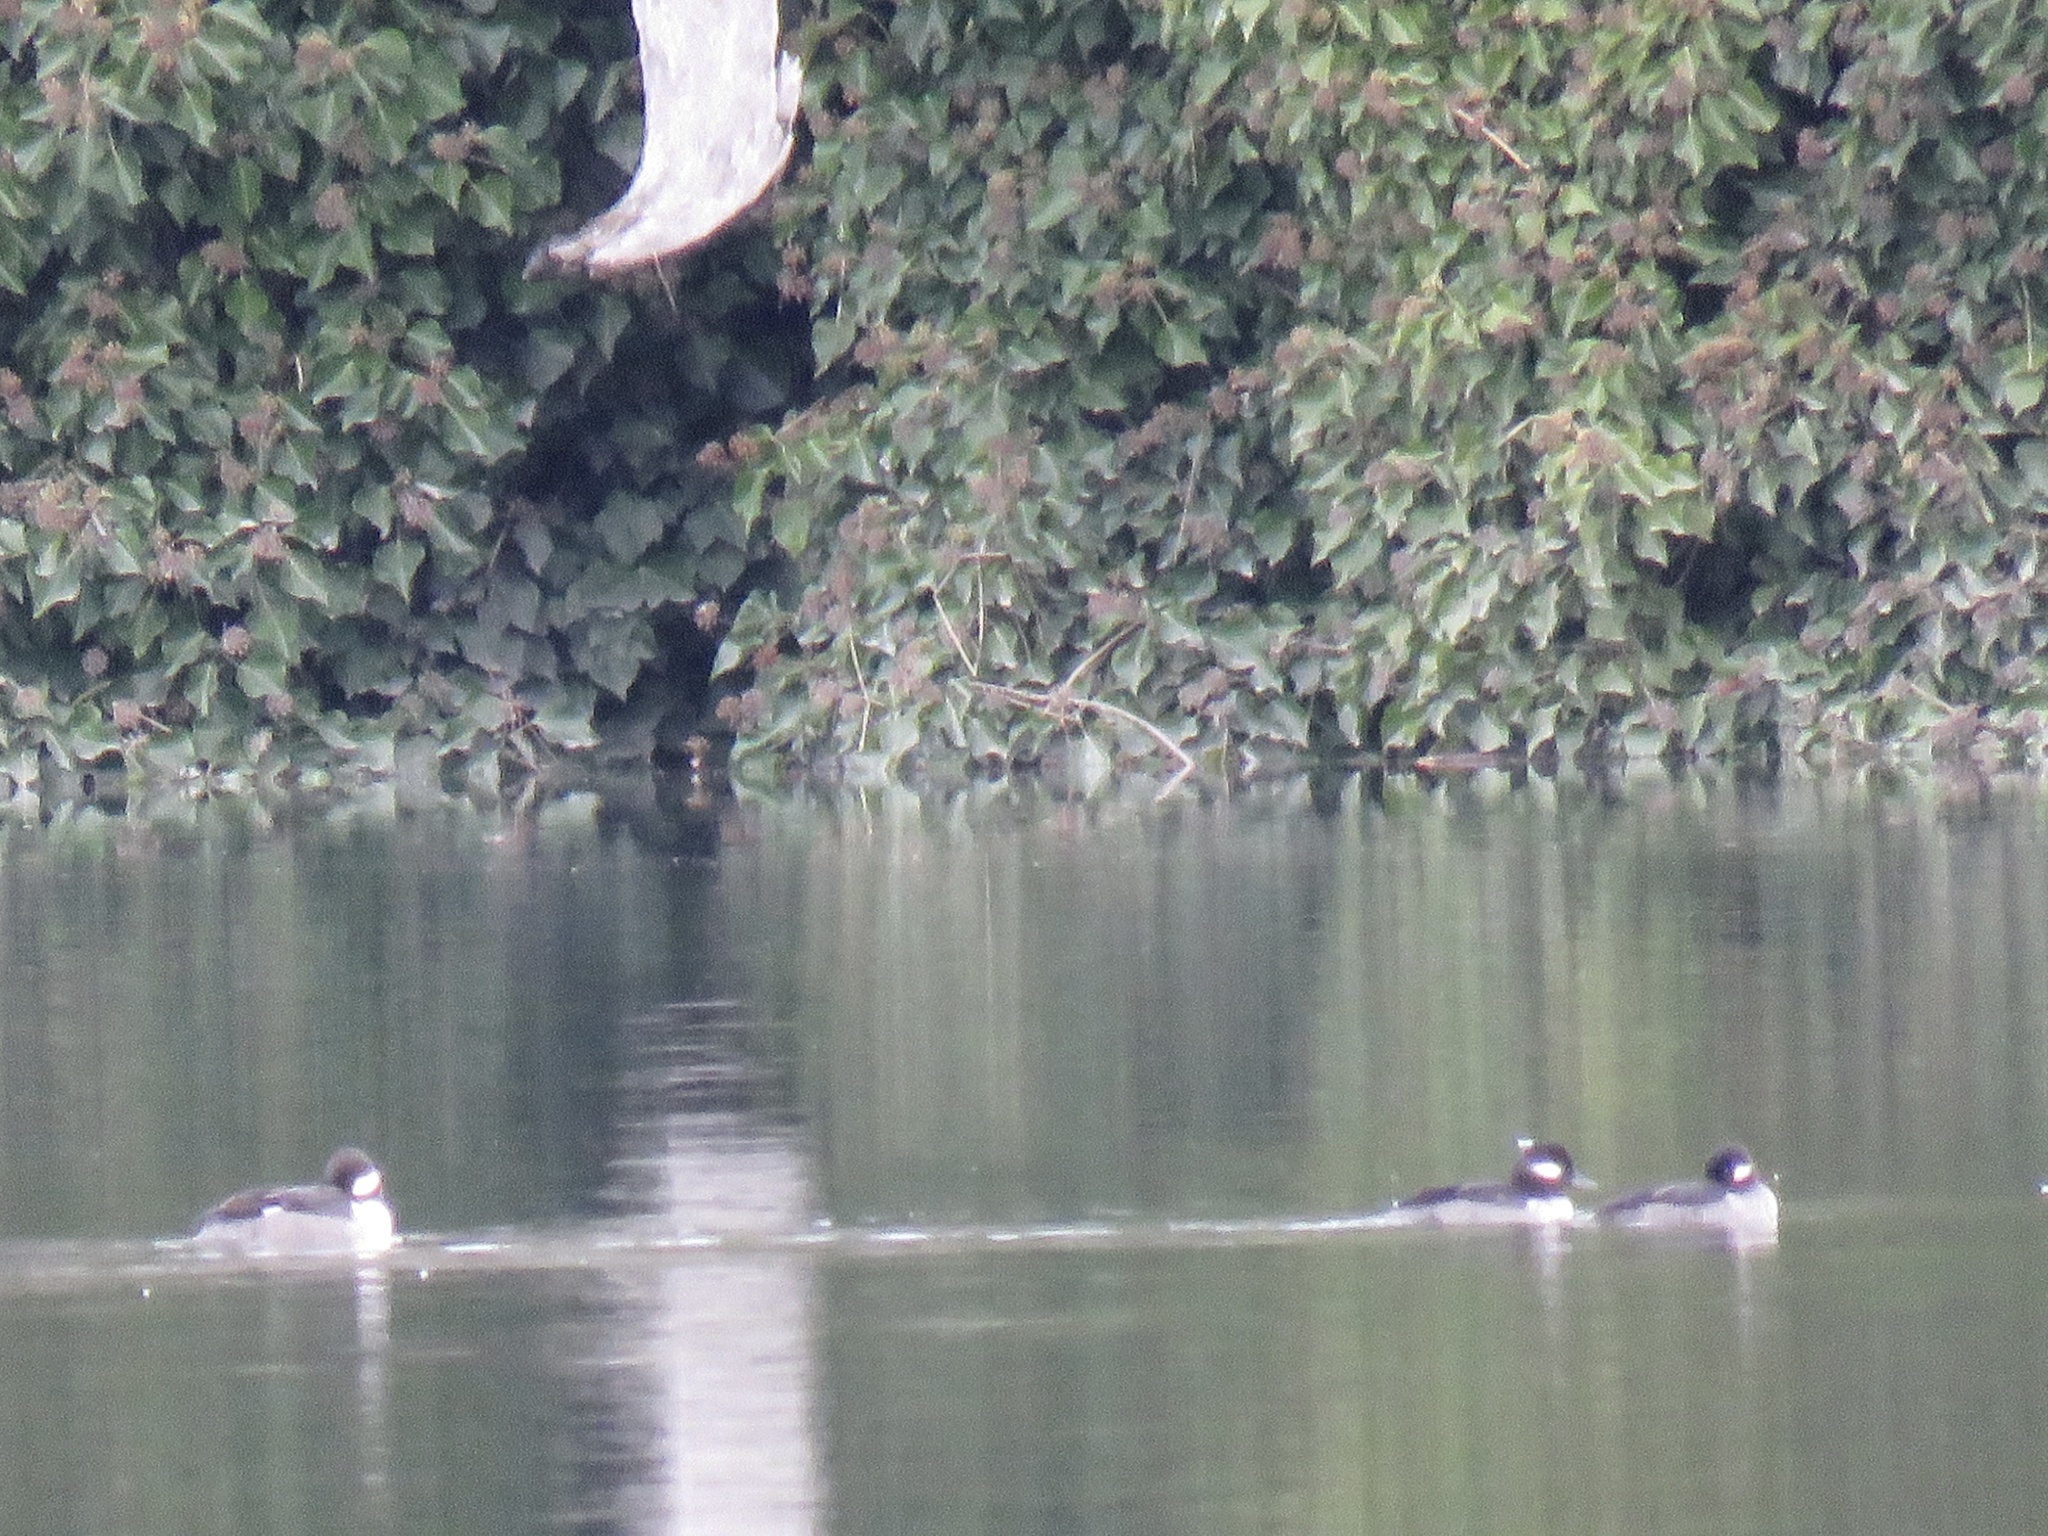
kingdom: Animalia
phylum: Chordata
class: Aves
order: Anseriformes
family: Anatidae
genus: Bucephala
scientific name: Bucephala albeola
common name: Bufflehead
